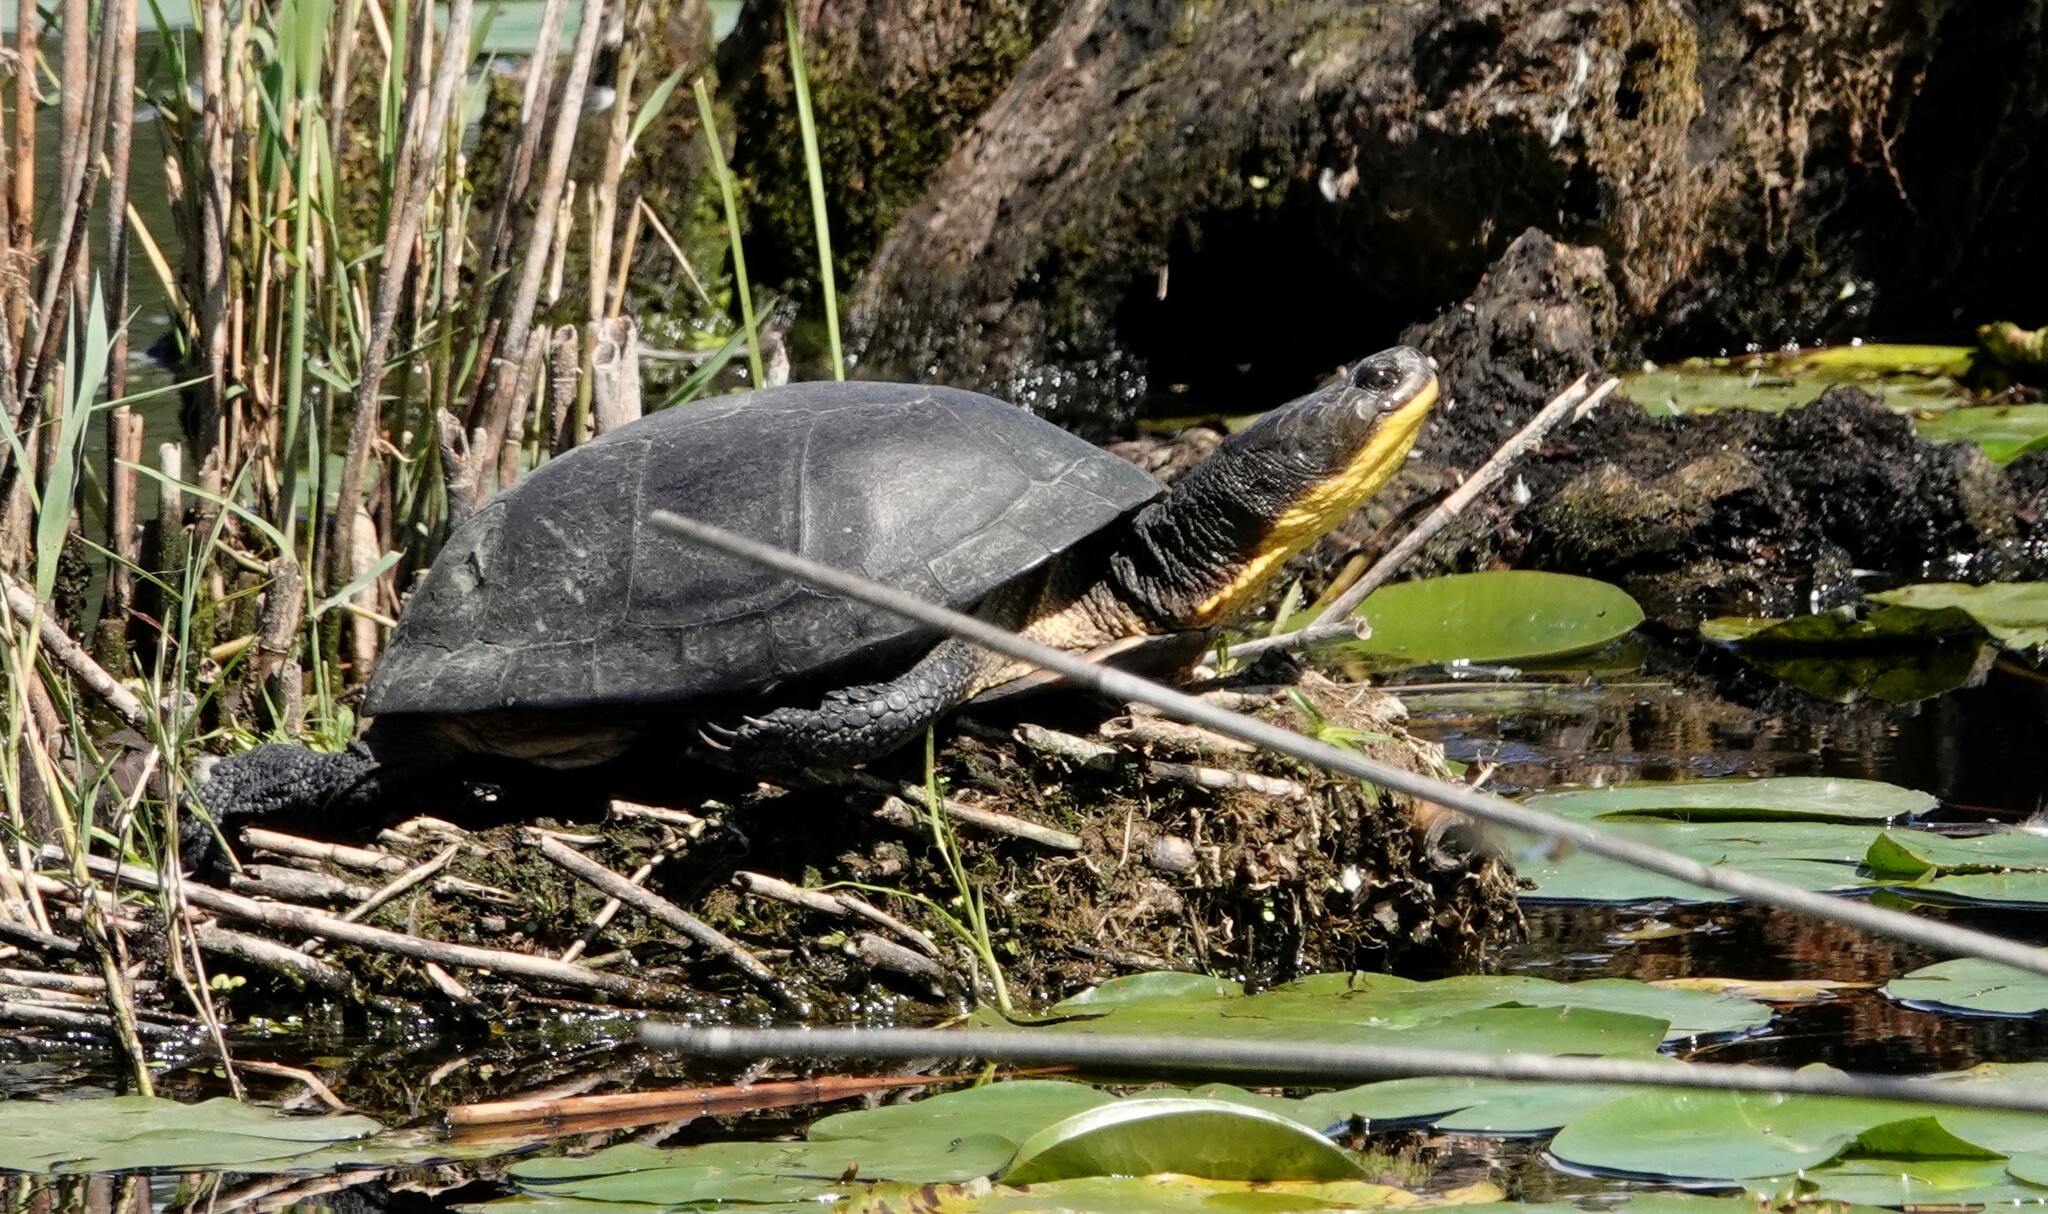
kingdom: Animalia
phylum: Chordata
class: Testudines
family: Emydidae
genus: Emys
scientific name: Emys blandingii
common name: Blanding's turtle
